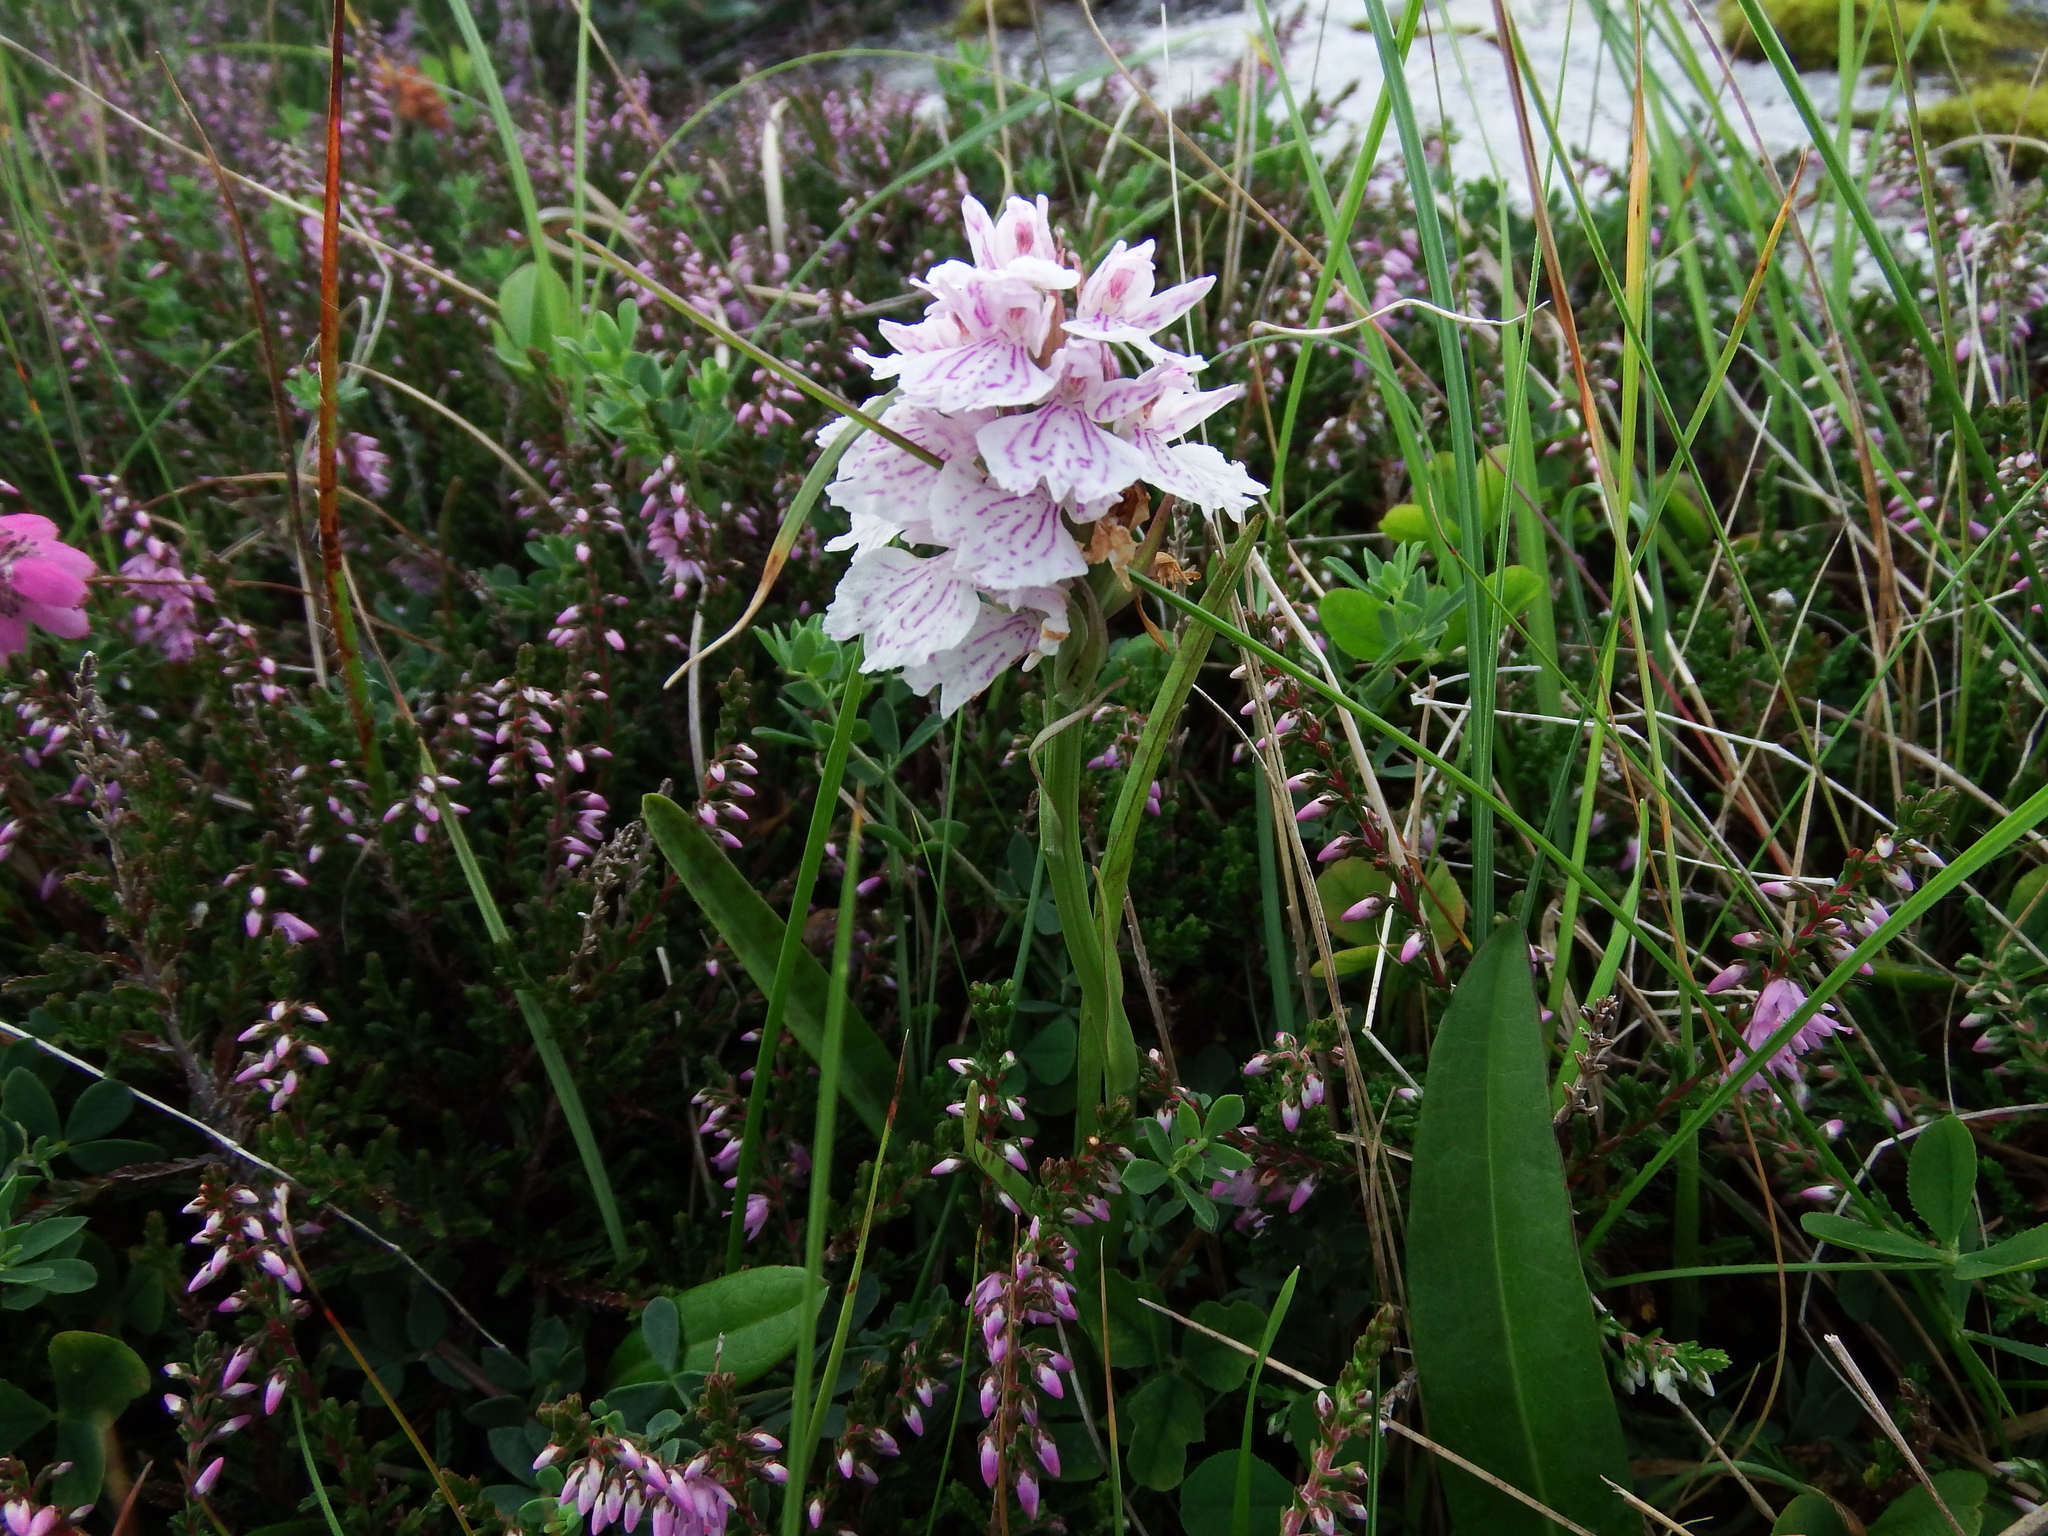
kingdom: Plantae
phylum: Tracheophyta
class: Liliopsida
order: Asparagales
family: Orchidaceae
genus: Dactylorhiza
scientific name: Dactylorhiza maculata
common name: Heath spotted-orchid
